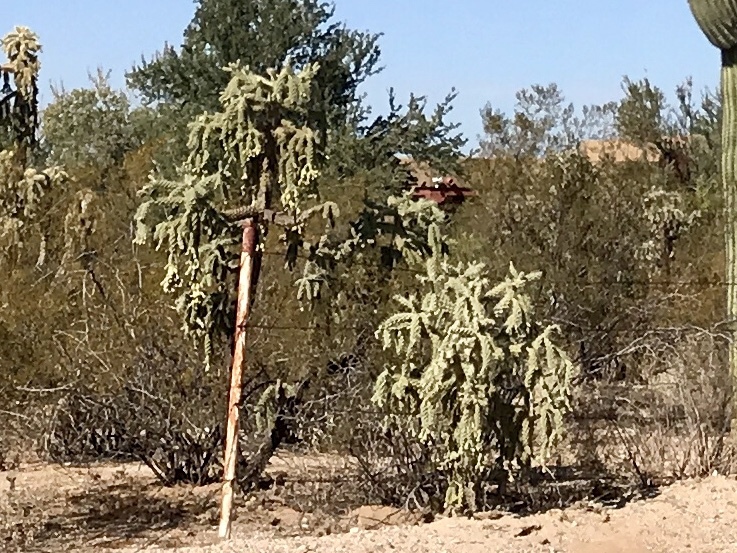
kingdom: Plantae
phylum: Tracheophyta
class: Magnoliopsida
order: Caryophyllales
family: Cactaceae
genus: Cylindropuntia
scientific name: Cylindropuntia fulgida
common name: Jumping cholla
